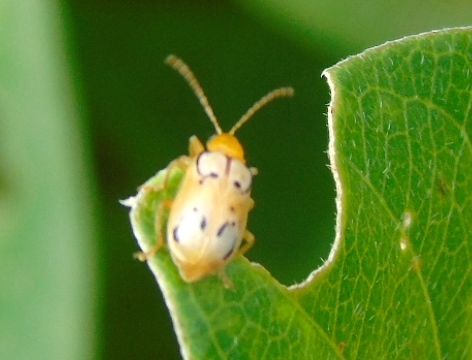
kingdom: Animalia
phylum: Arthropoda
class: Insecta
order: Coleoptera
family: Chrysomelidae
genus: Diabrotica
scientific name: Diabrotica
